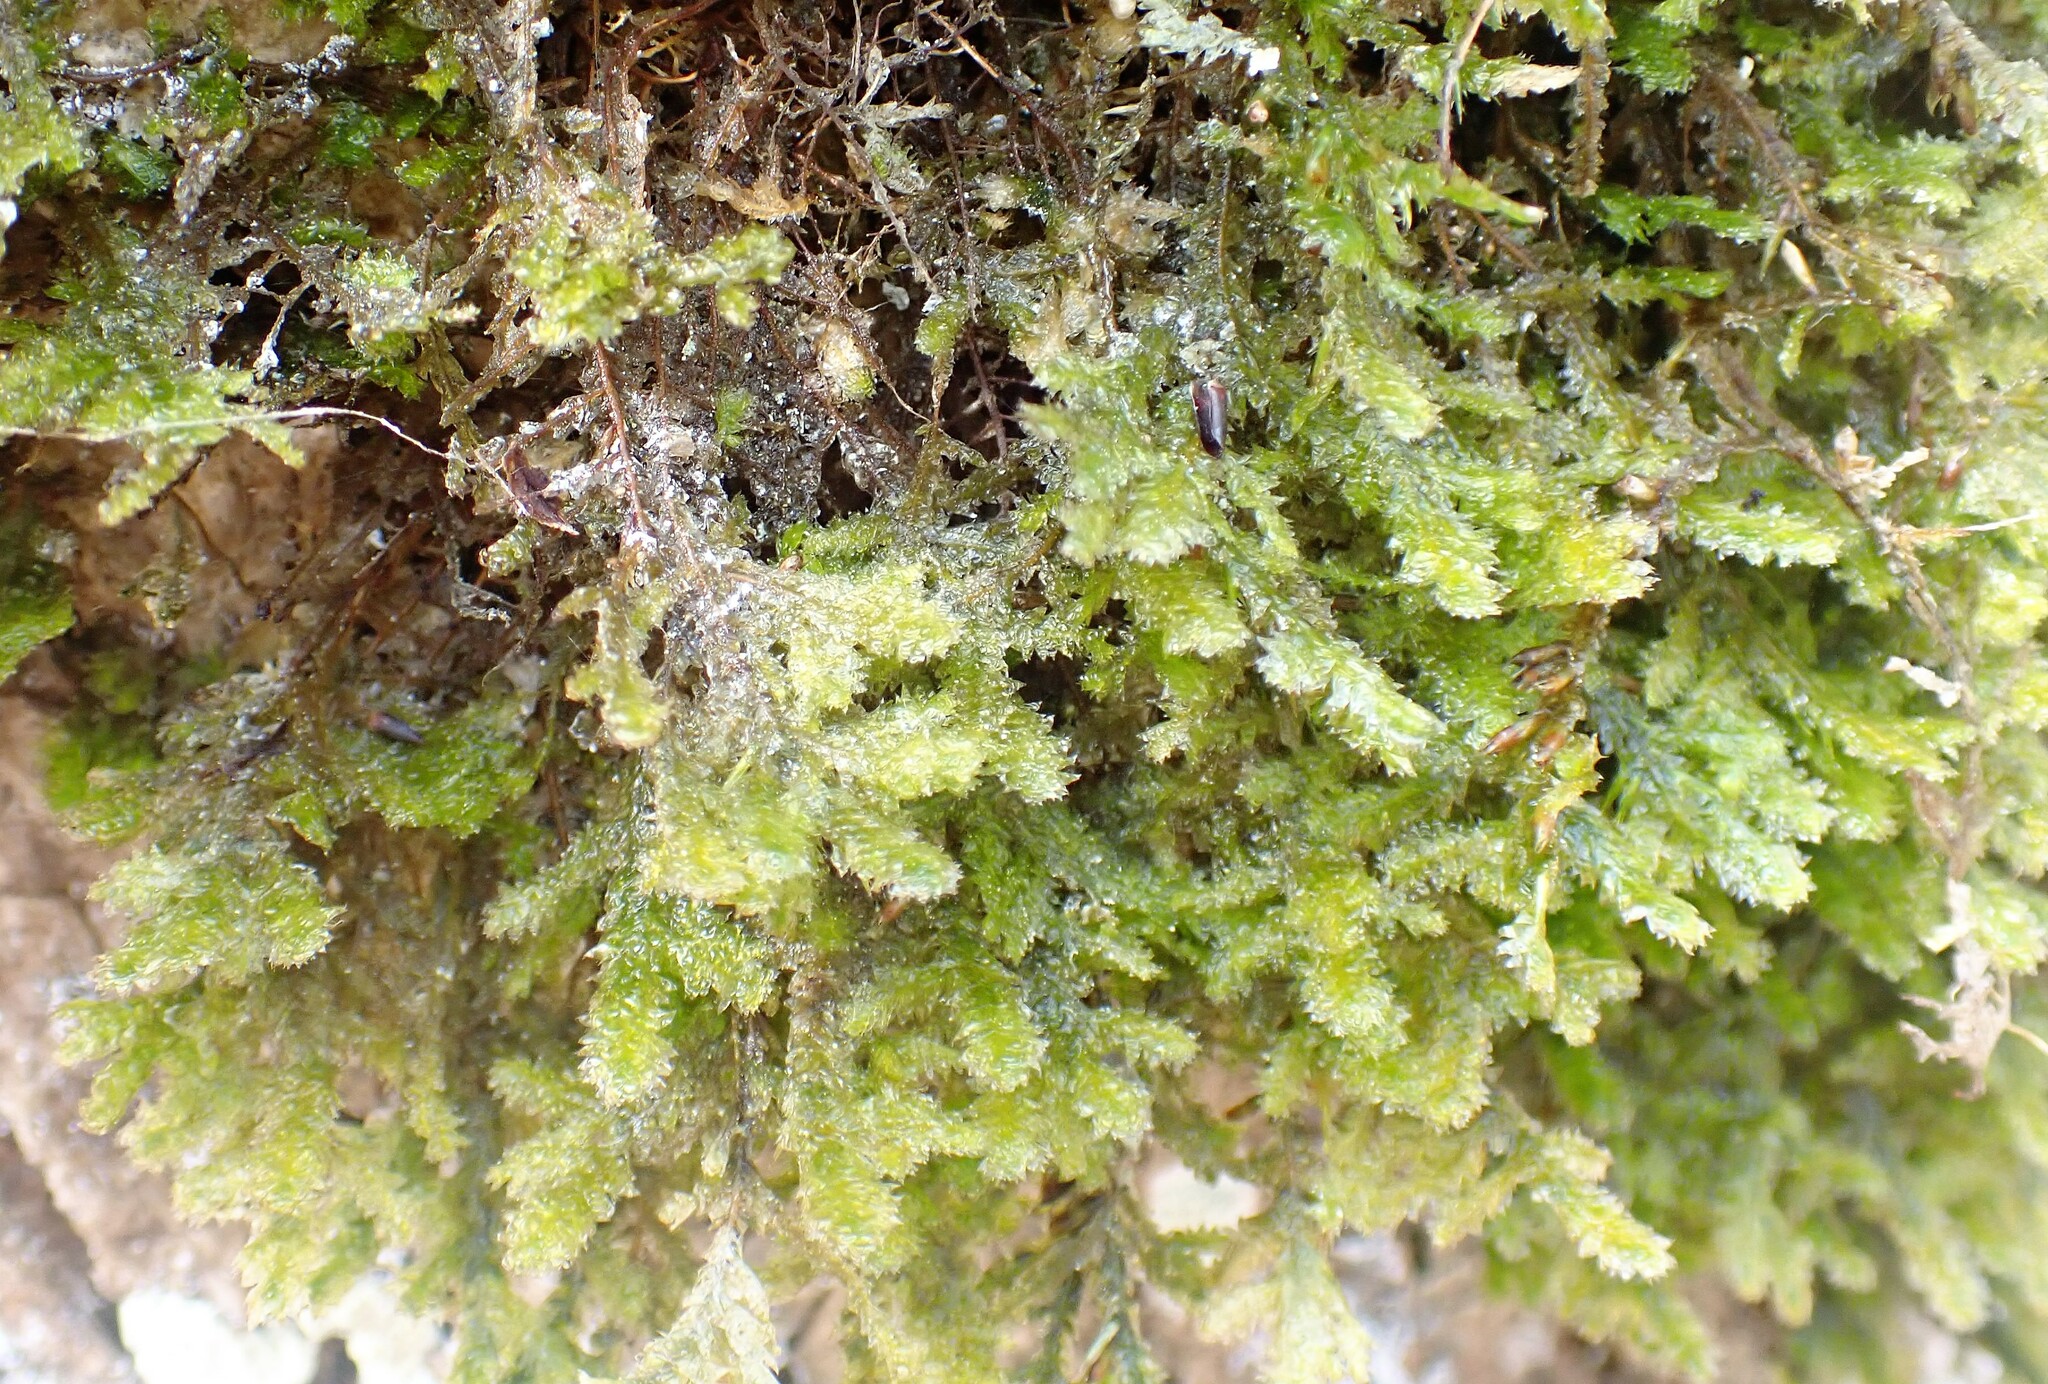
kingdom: Plantae
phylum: Bryophyta
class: Bryopsida
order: Hypnales
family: Neckeraceae
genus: Neckera
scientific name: Neckera pennata
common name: Feathery neckera
